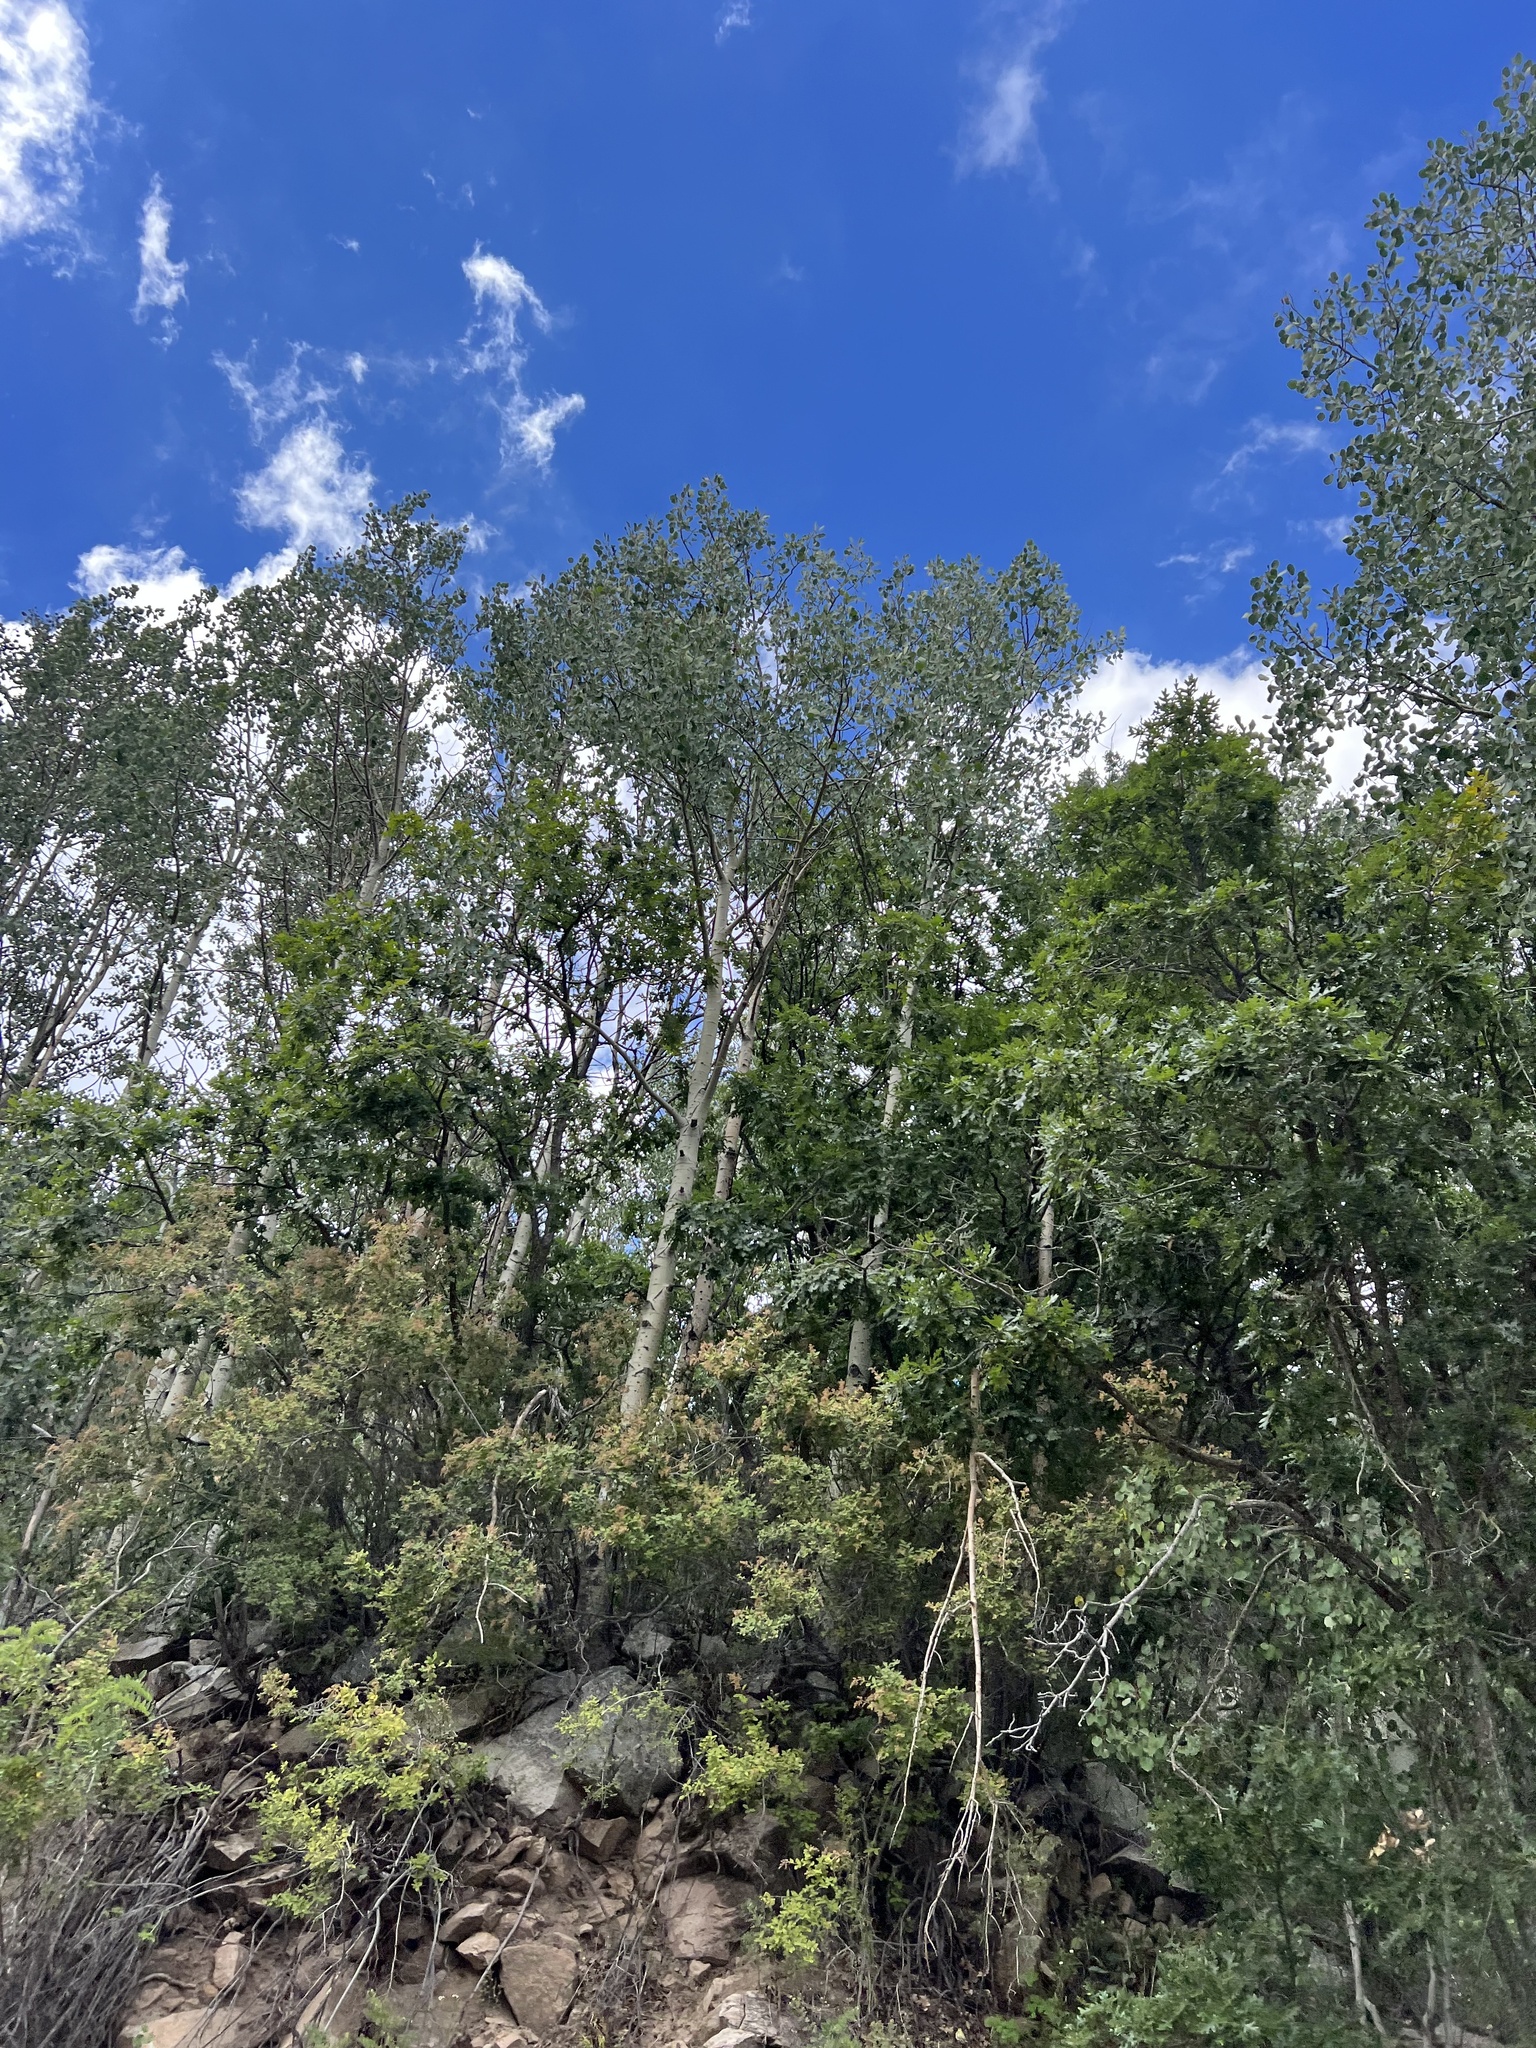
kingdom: Plantae
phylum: Tracheophyta
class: Magnoliopsida
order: Malpighiales
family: Salicaceae
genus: Populus
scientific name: Populus tremuloides
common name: Quaking aspen
